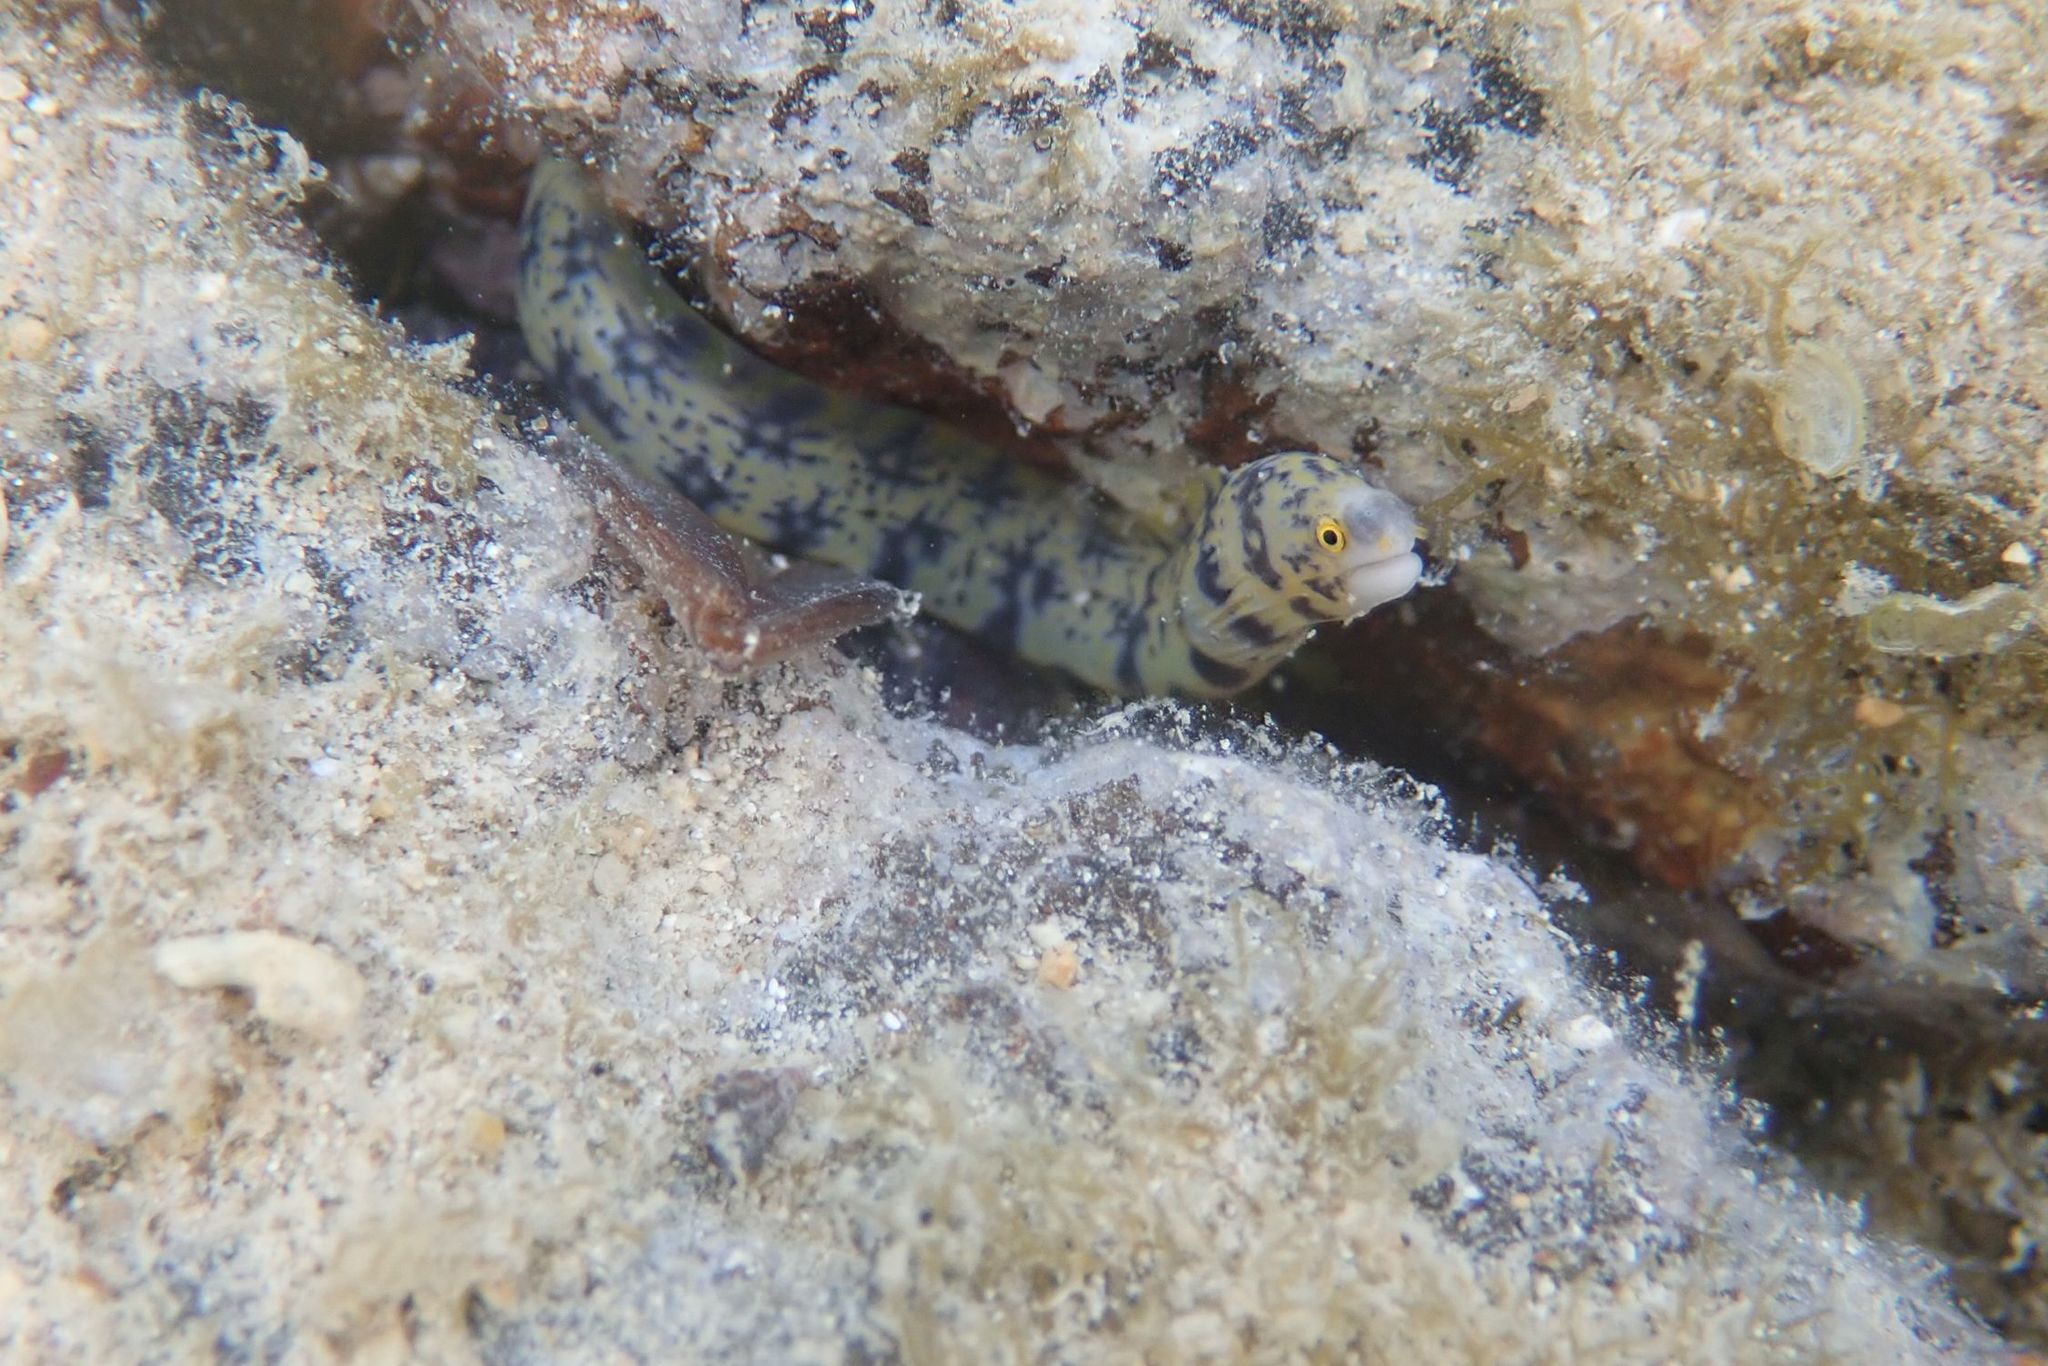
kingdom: Animalia
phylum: Chordata
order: Anguilliformes
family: Muraenidae
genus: Echidna
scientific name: Echidna nebulosa
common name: Snowflake moray
